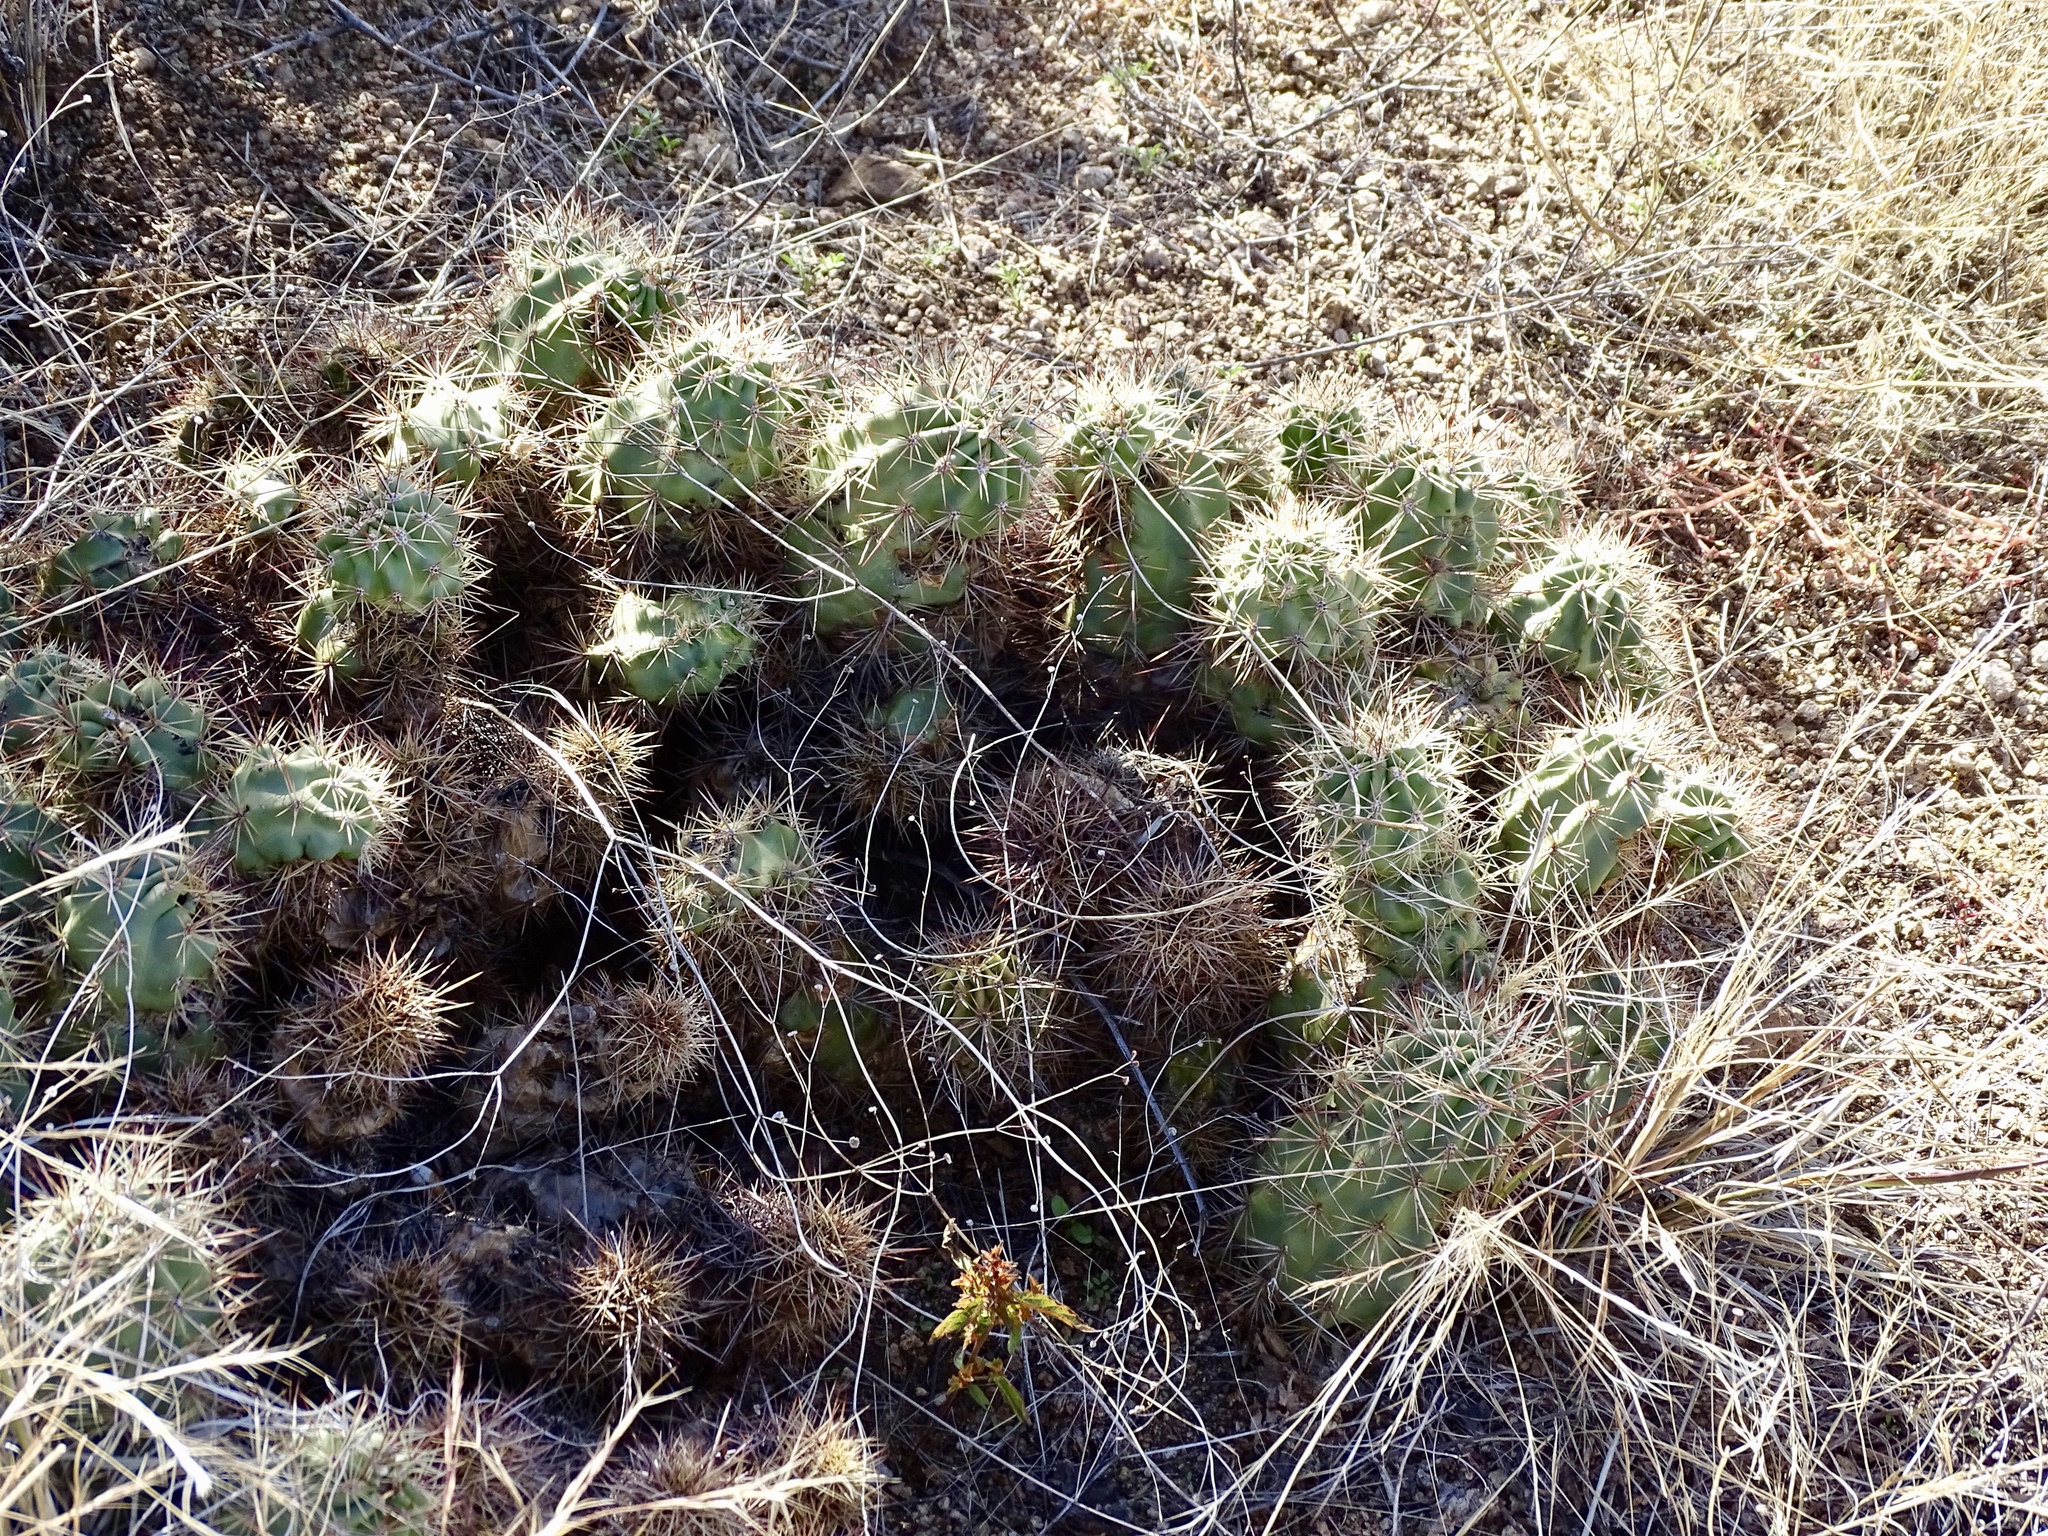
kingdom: Plantae
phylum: Tracheophyta
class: Magnoliopsida
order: Caryophyllales
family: Cactaceae
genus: Echinocereus
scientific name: Echinocereus coccineus
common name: Scarlet hedgehog cactus
